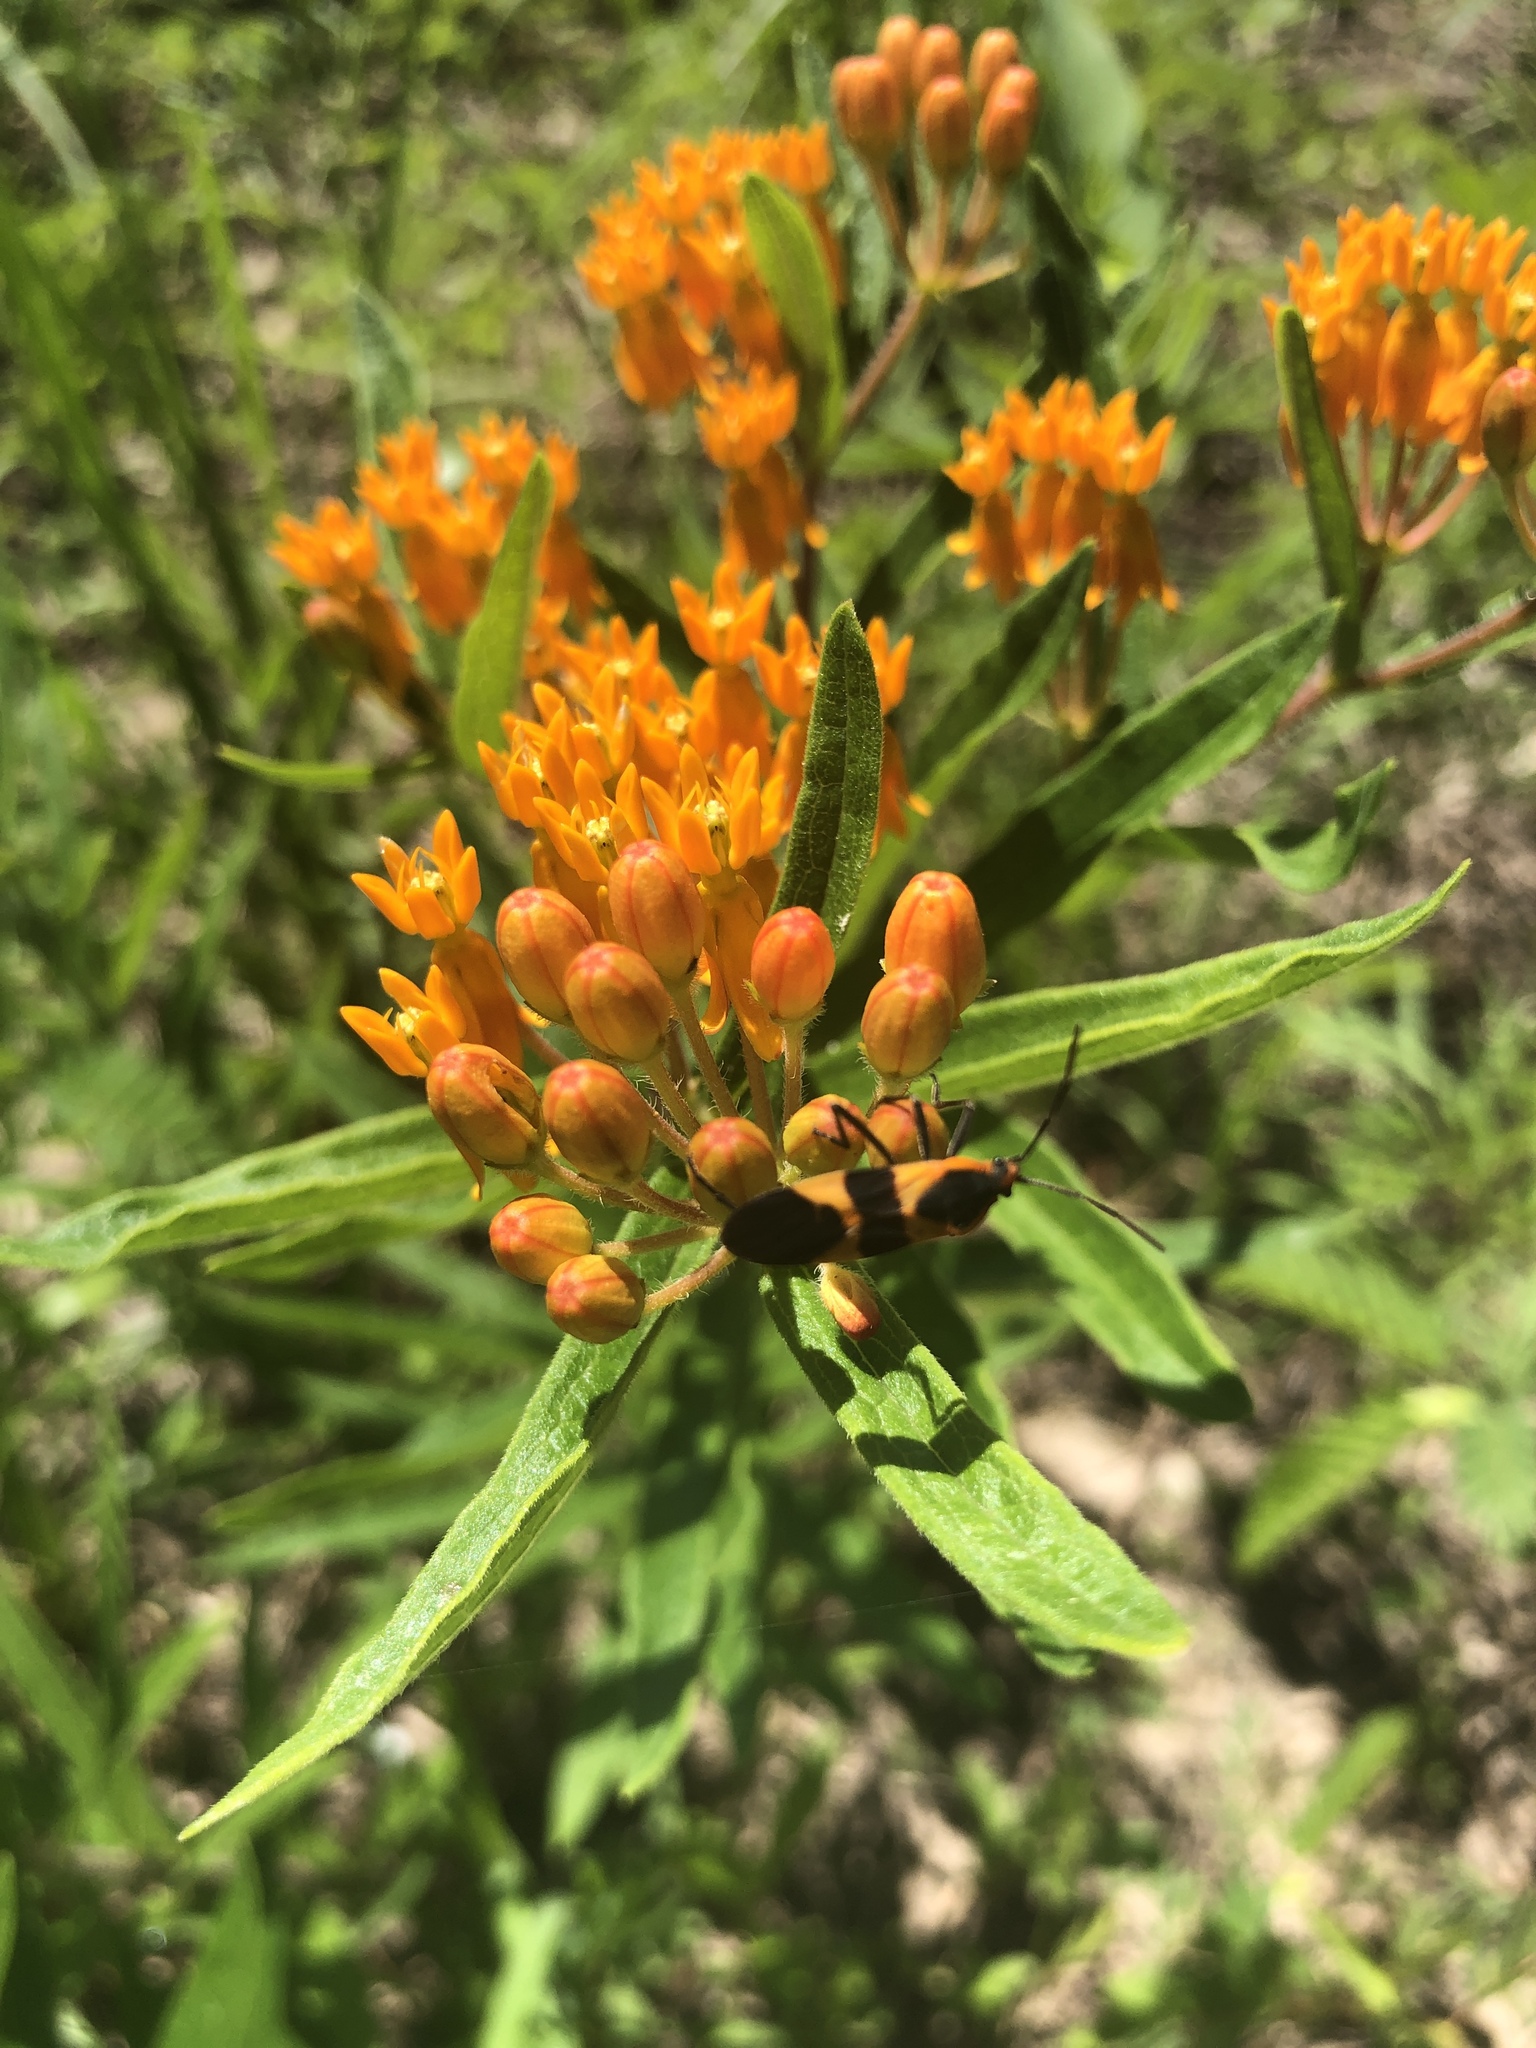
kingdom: Animalia
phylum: Arthropoda
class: Insecta
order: Hemiptera
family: Lygaeidae
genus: Oncopeltus
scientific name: Oncopeltus fasciatus
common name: Large milkweed bug
